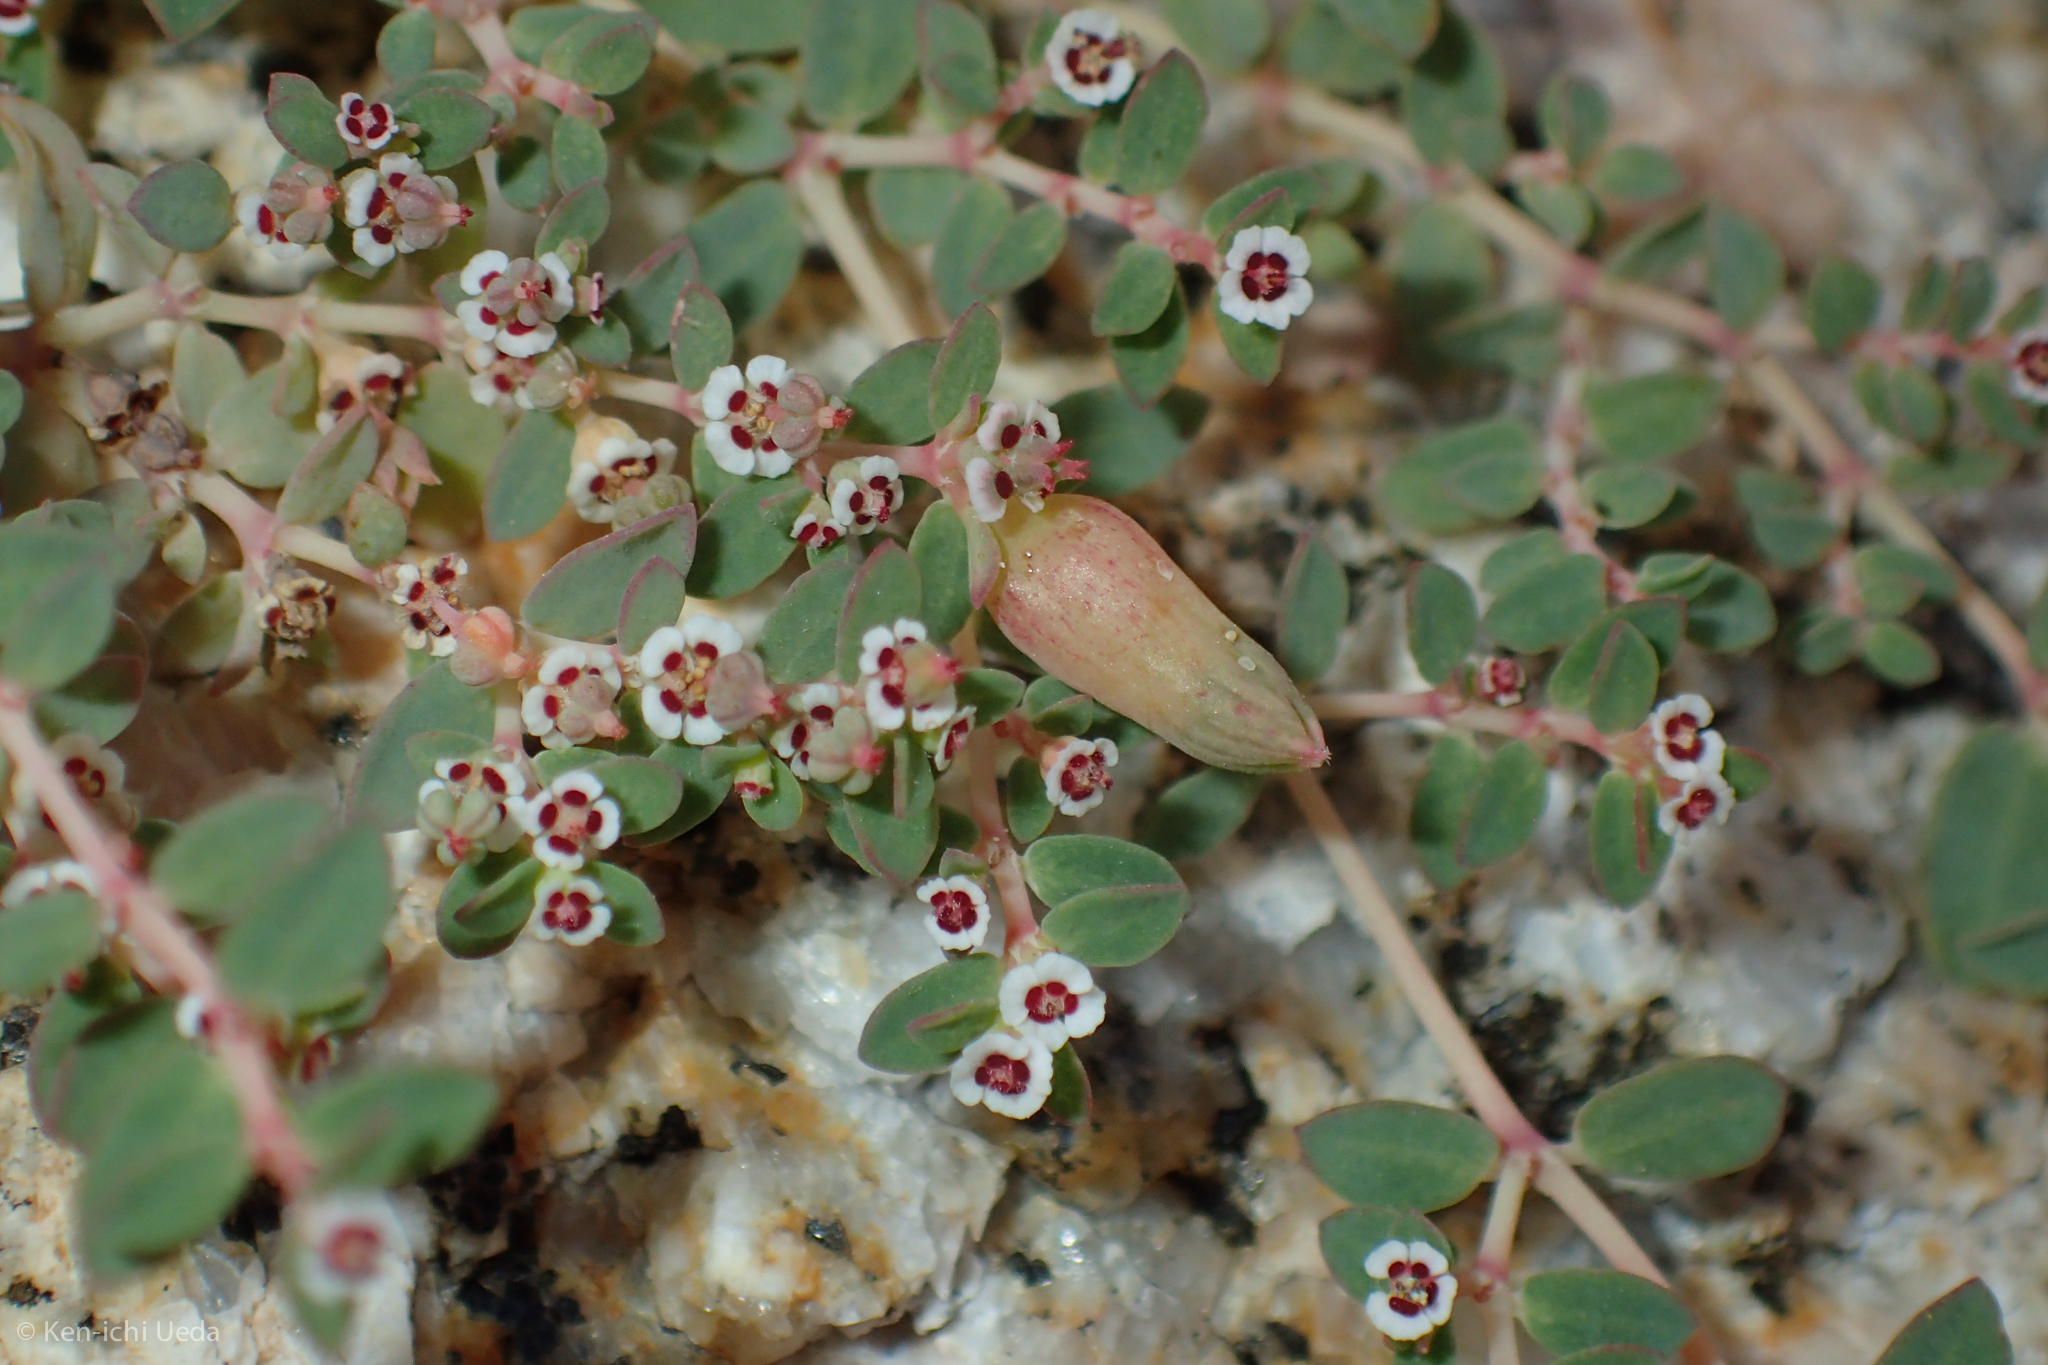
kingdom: Plantae
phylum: Tracheophyta
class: Magnoliopsida
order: Malpighiales
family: Euphorbiaceae
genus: Euphorbia
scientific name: Euphorbia polycarpa
